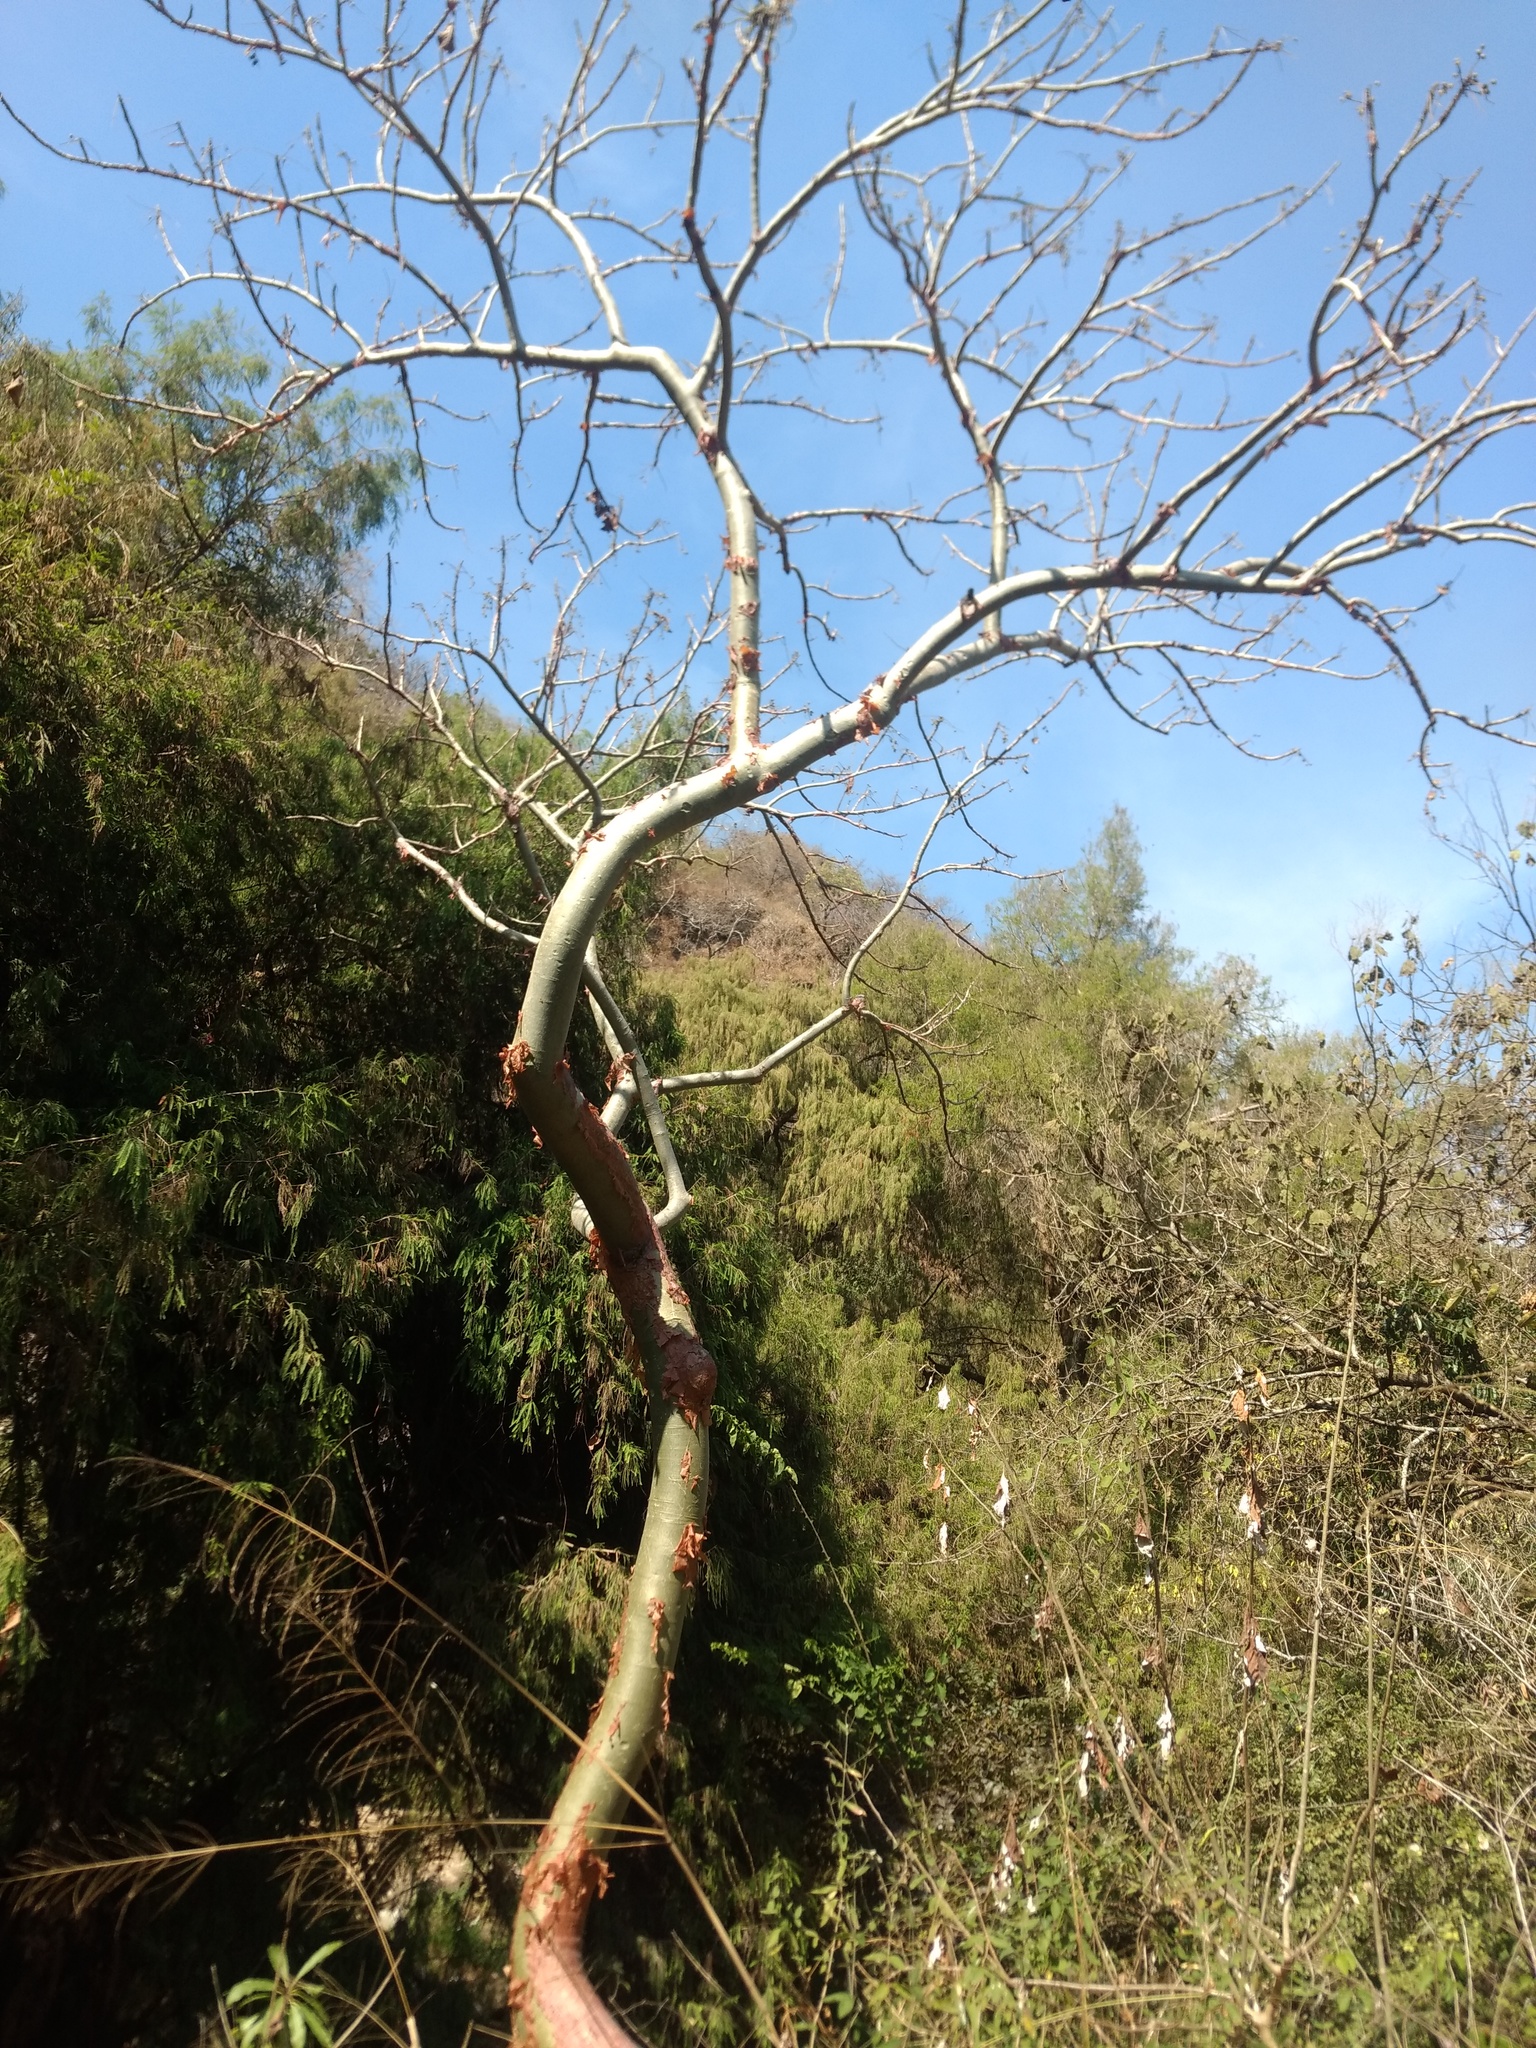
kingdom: Plantae
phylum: Tracheophyta
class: Magnoliopsida
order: Sapindales
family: Burseraceae
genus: Bursera
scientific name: Bursera grandifolia
